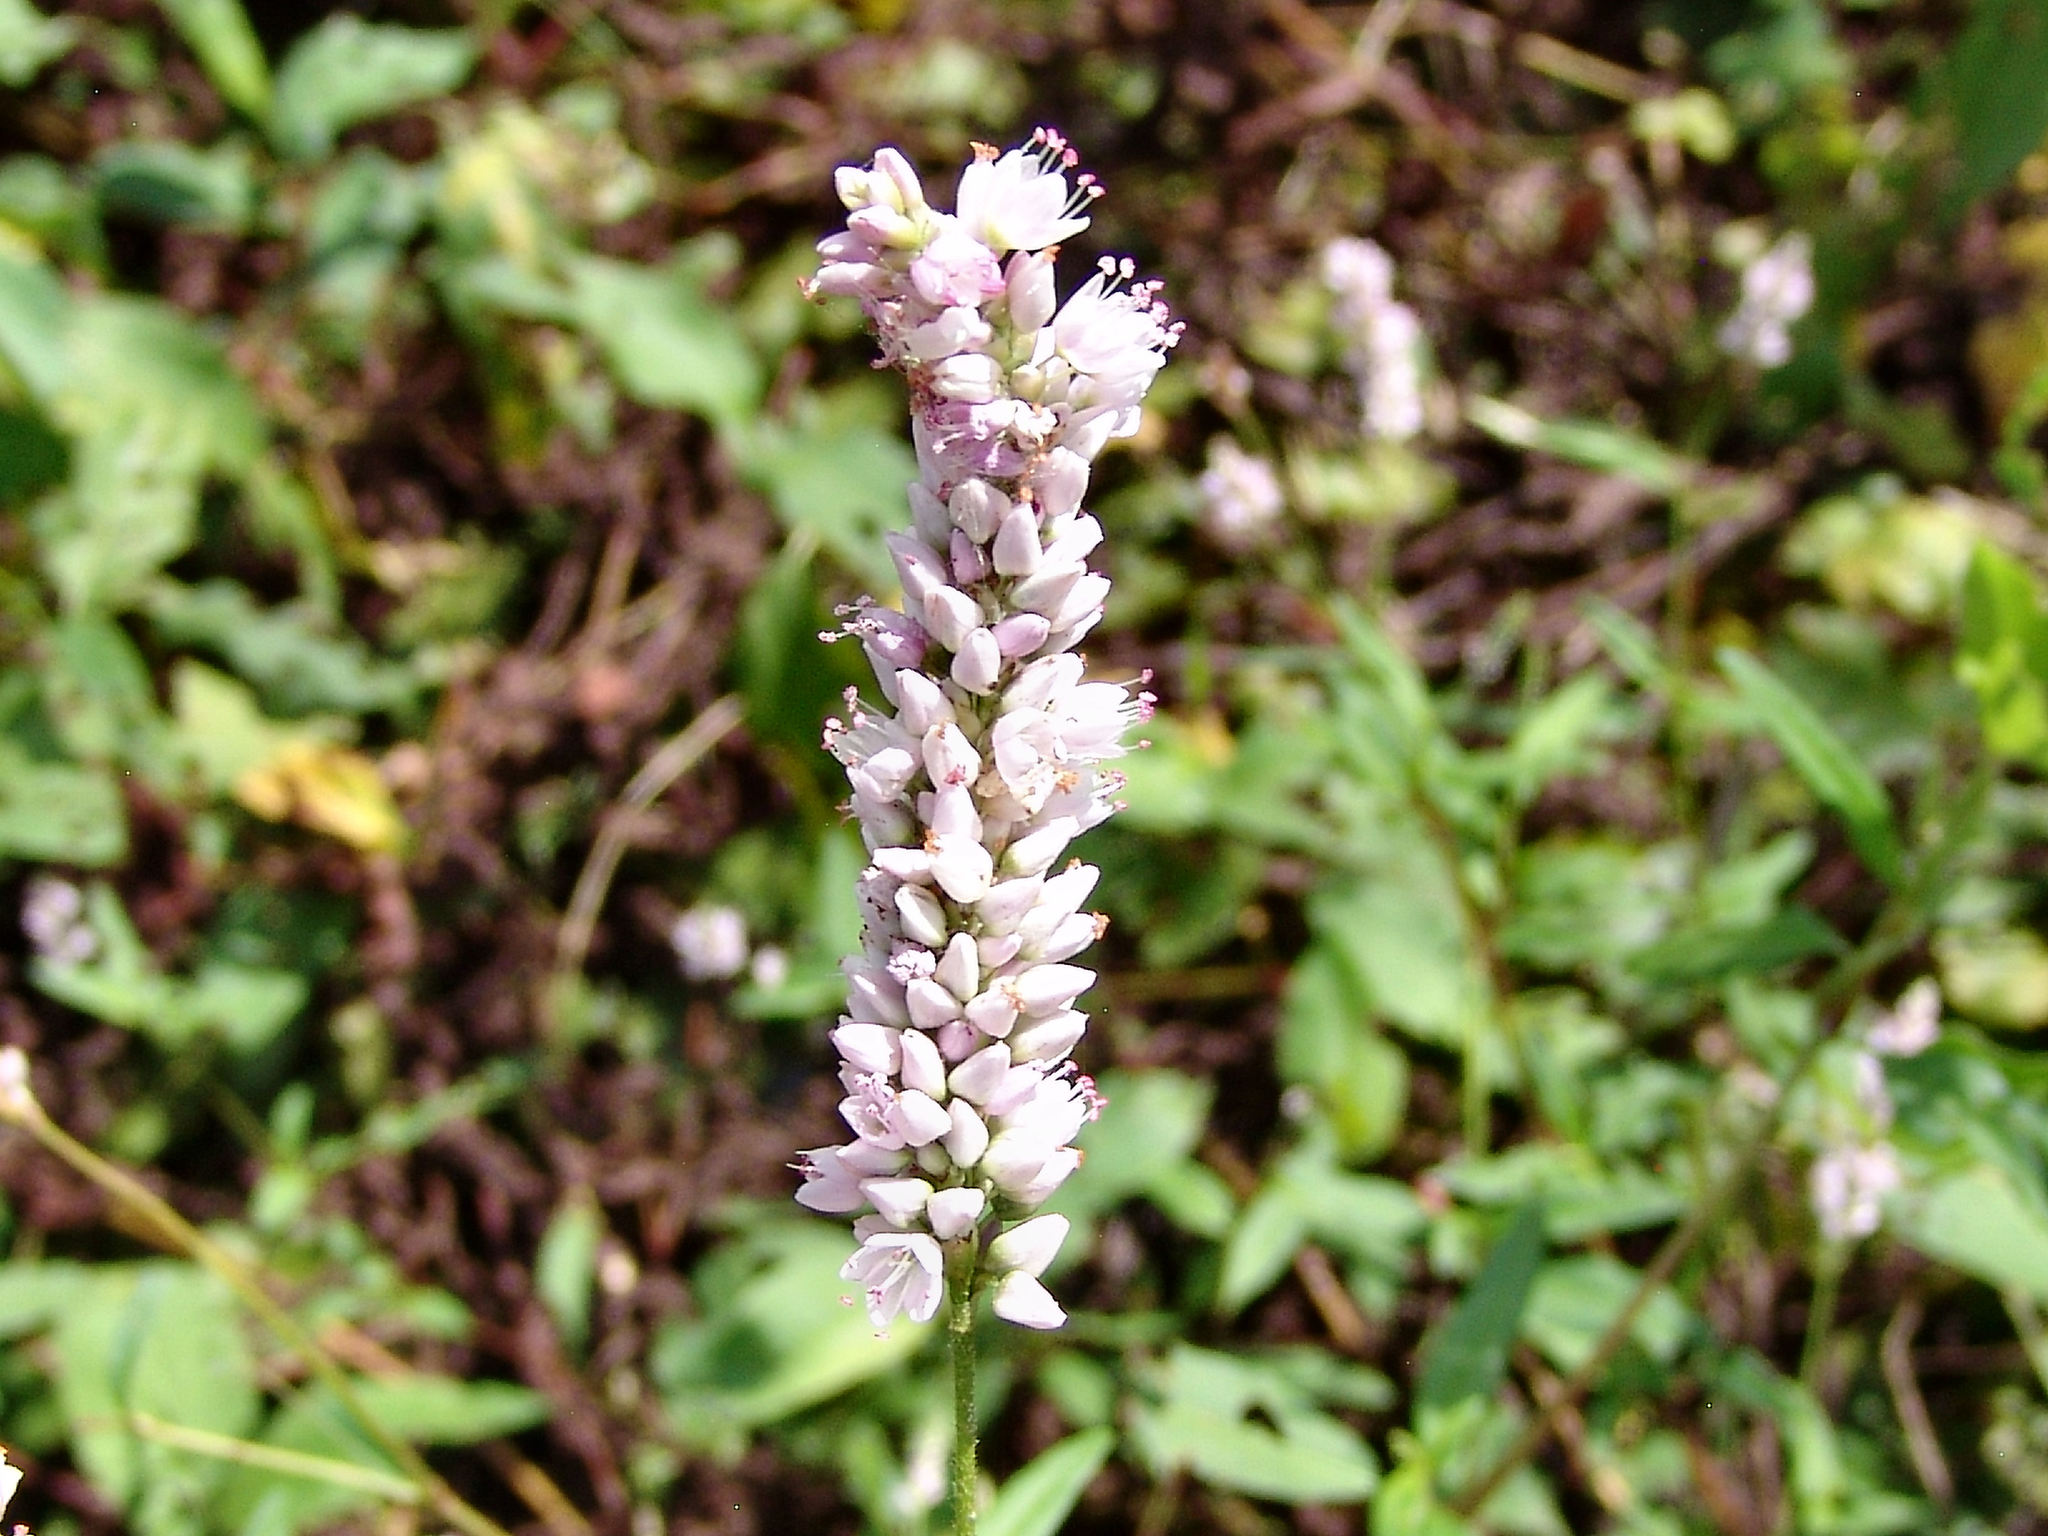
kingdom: Plantae
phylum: Tracheophyta
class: Magnoliopsida
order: Caryophyllales
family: Polygonaceae
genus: Persicaria
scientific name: Persicaria bicornis
